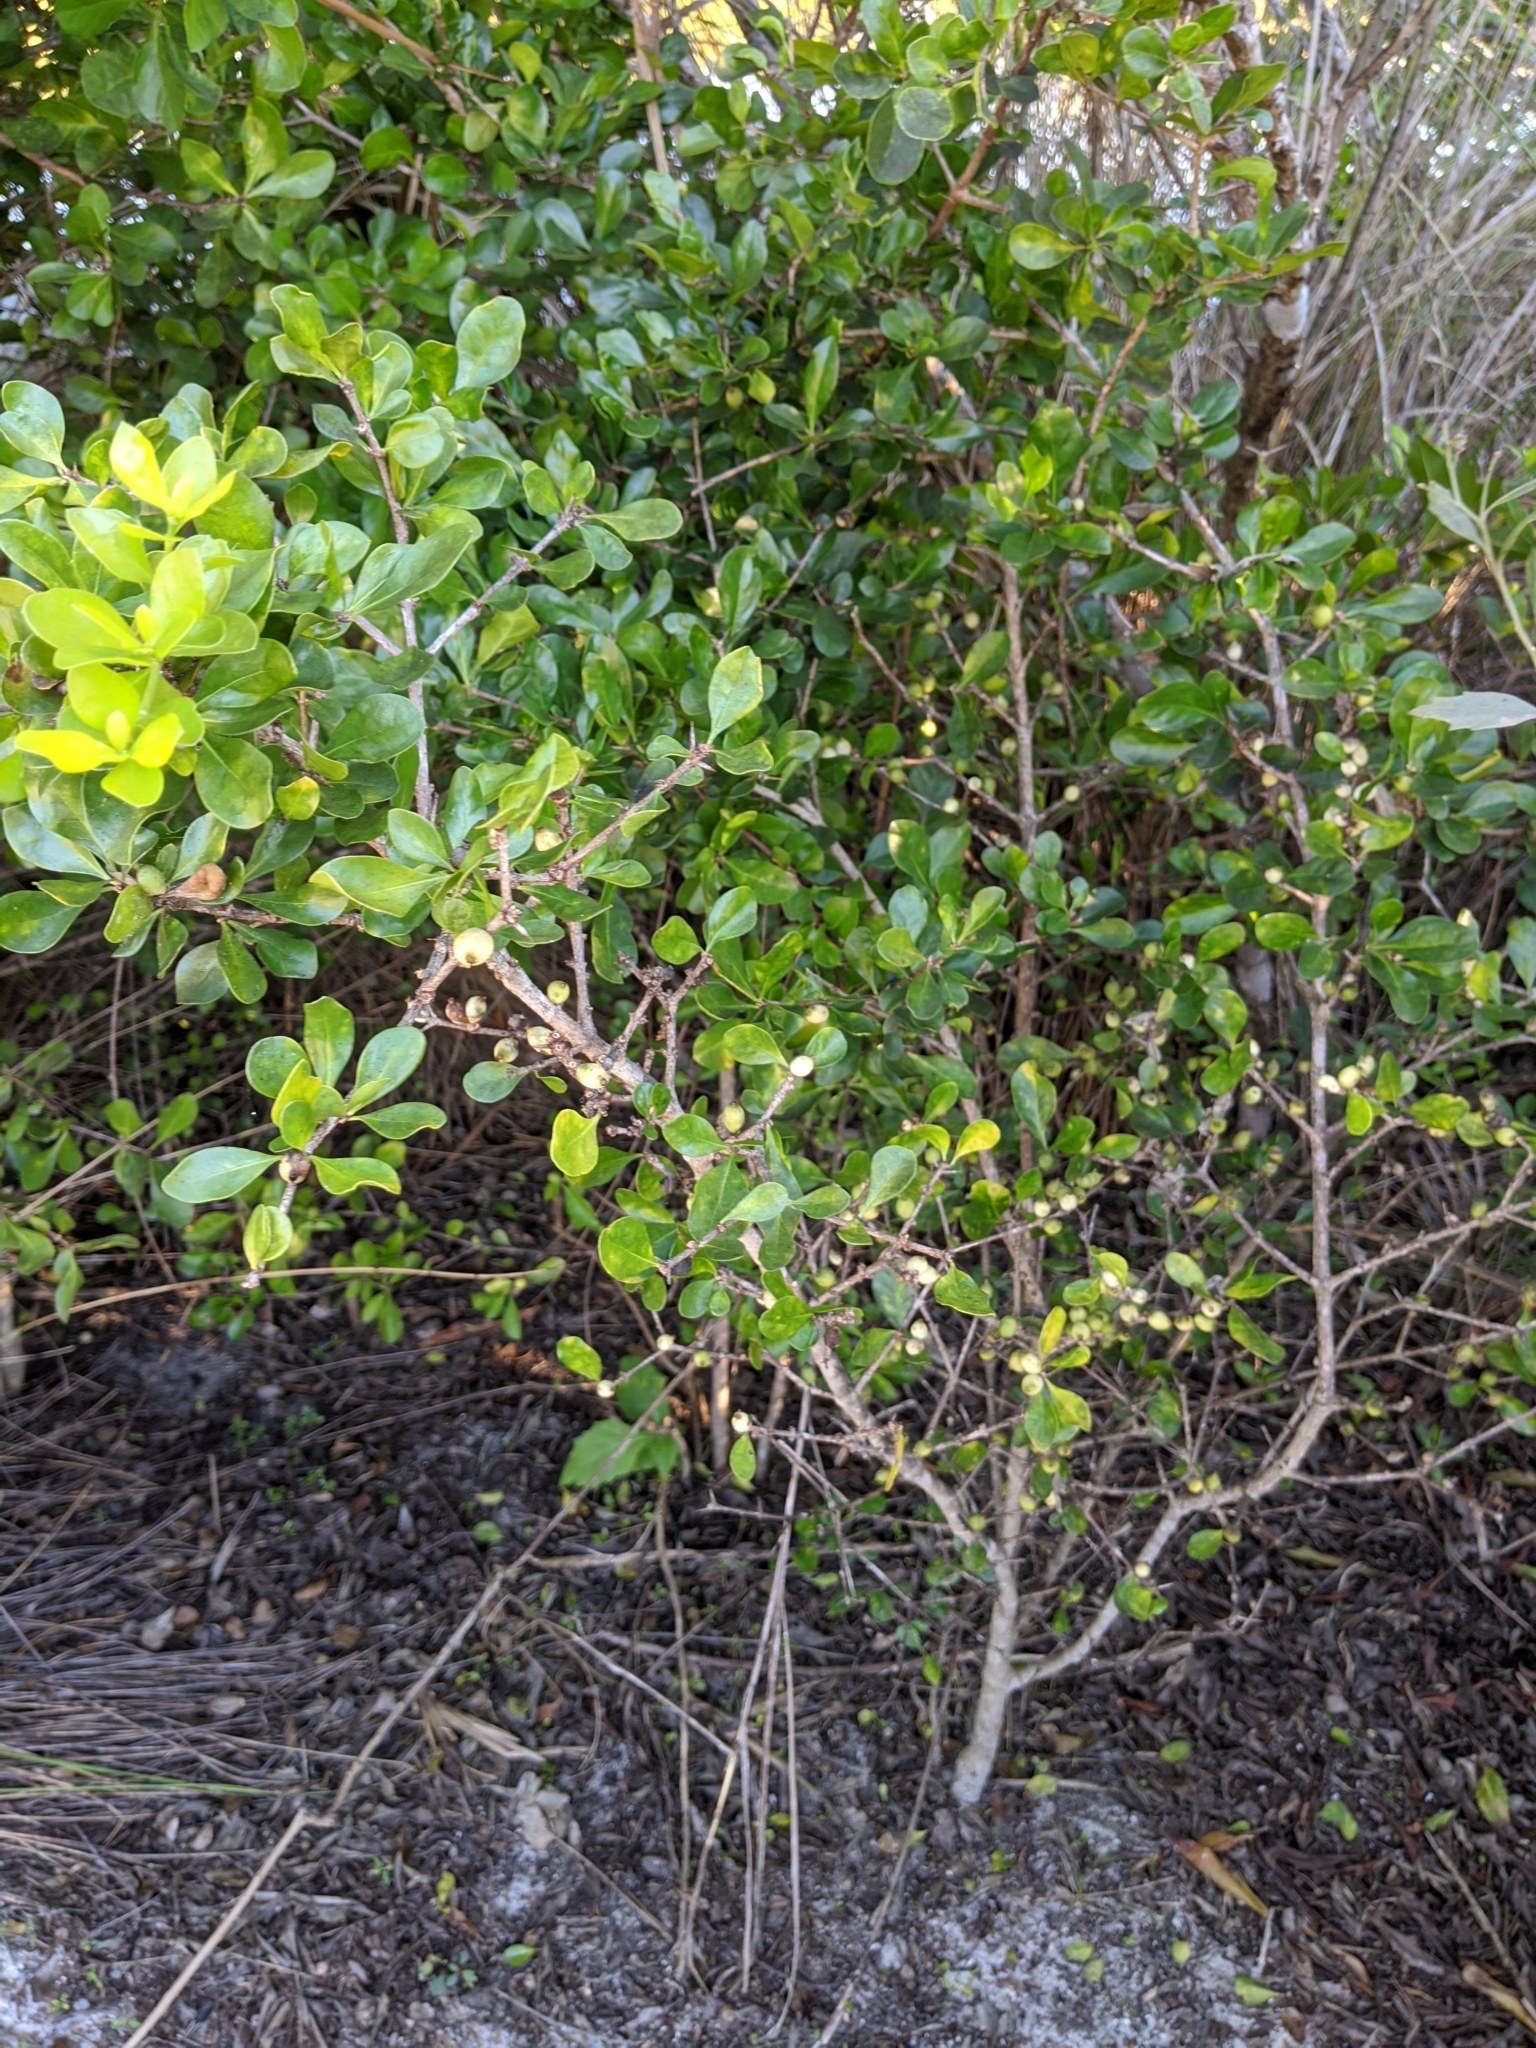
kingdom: Plantae
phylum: Tracheophyta
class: Magnoliopsida
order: Gentianales
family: Rubiaceae
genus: Randia
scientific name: Randia aculeata
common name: Inkberry
